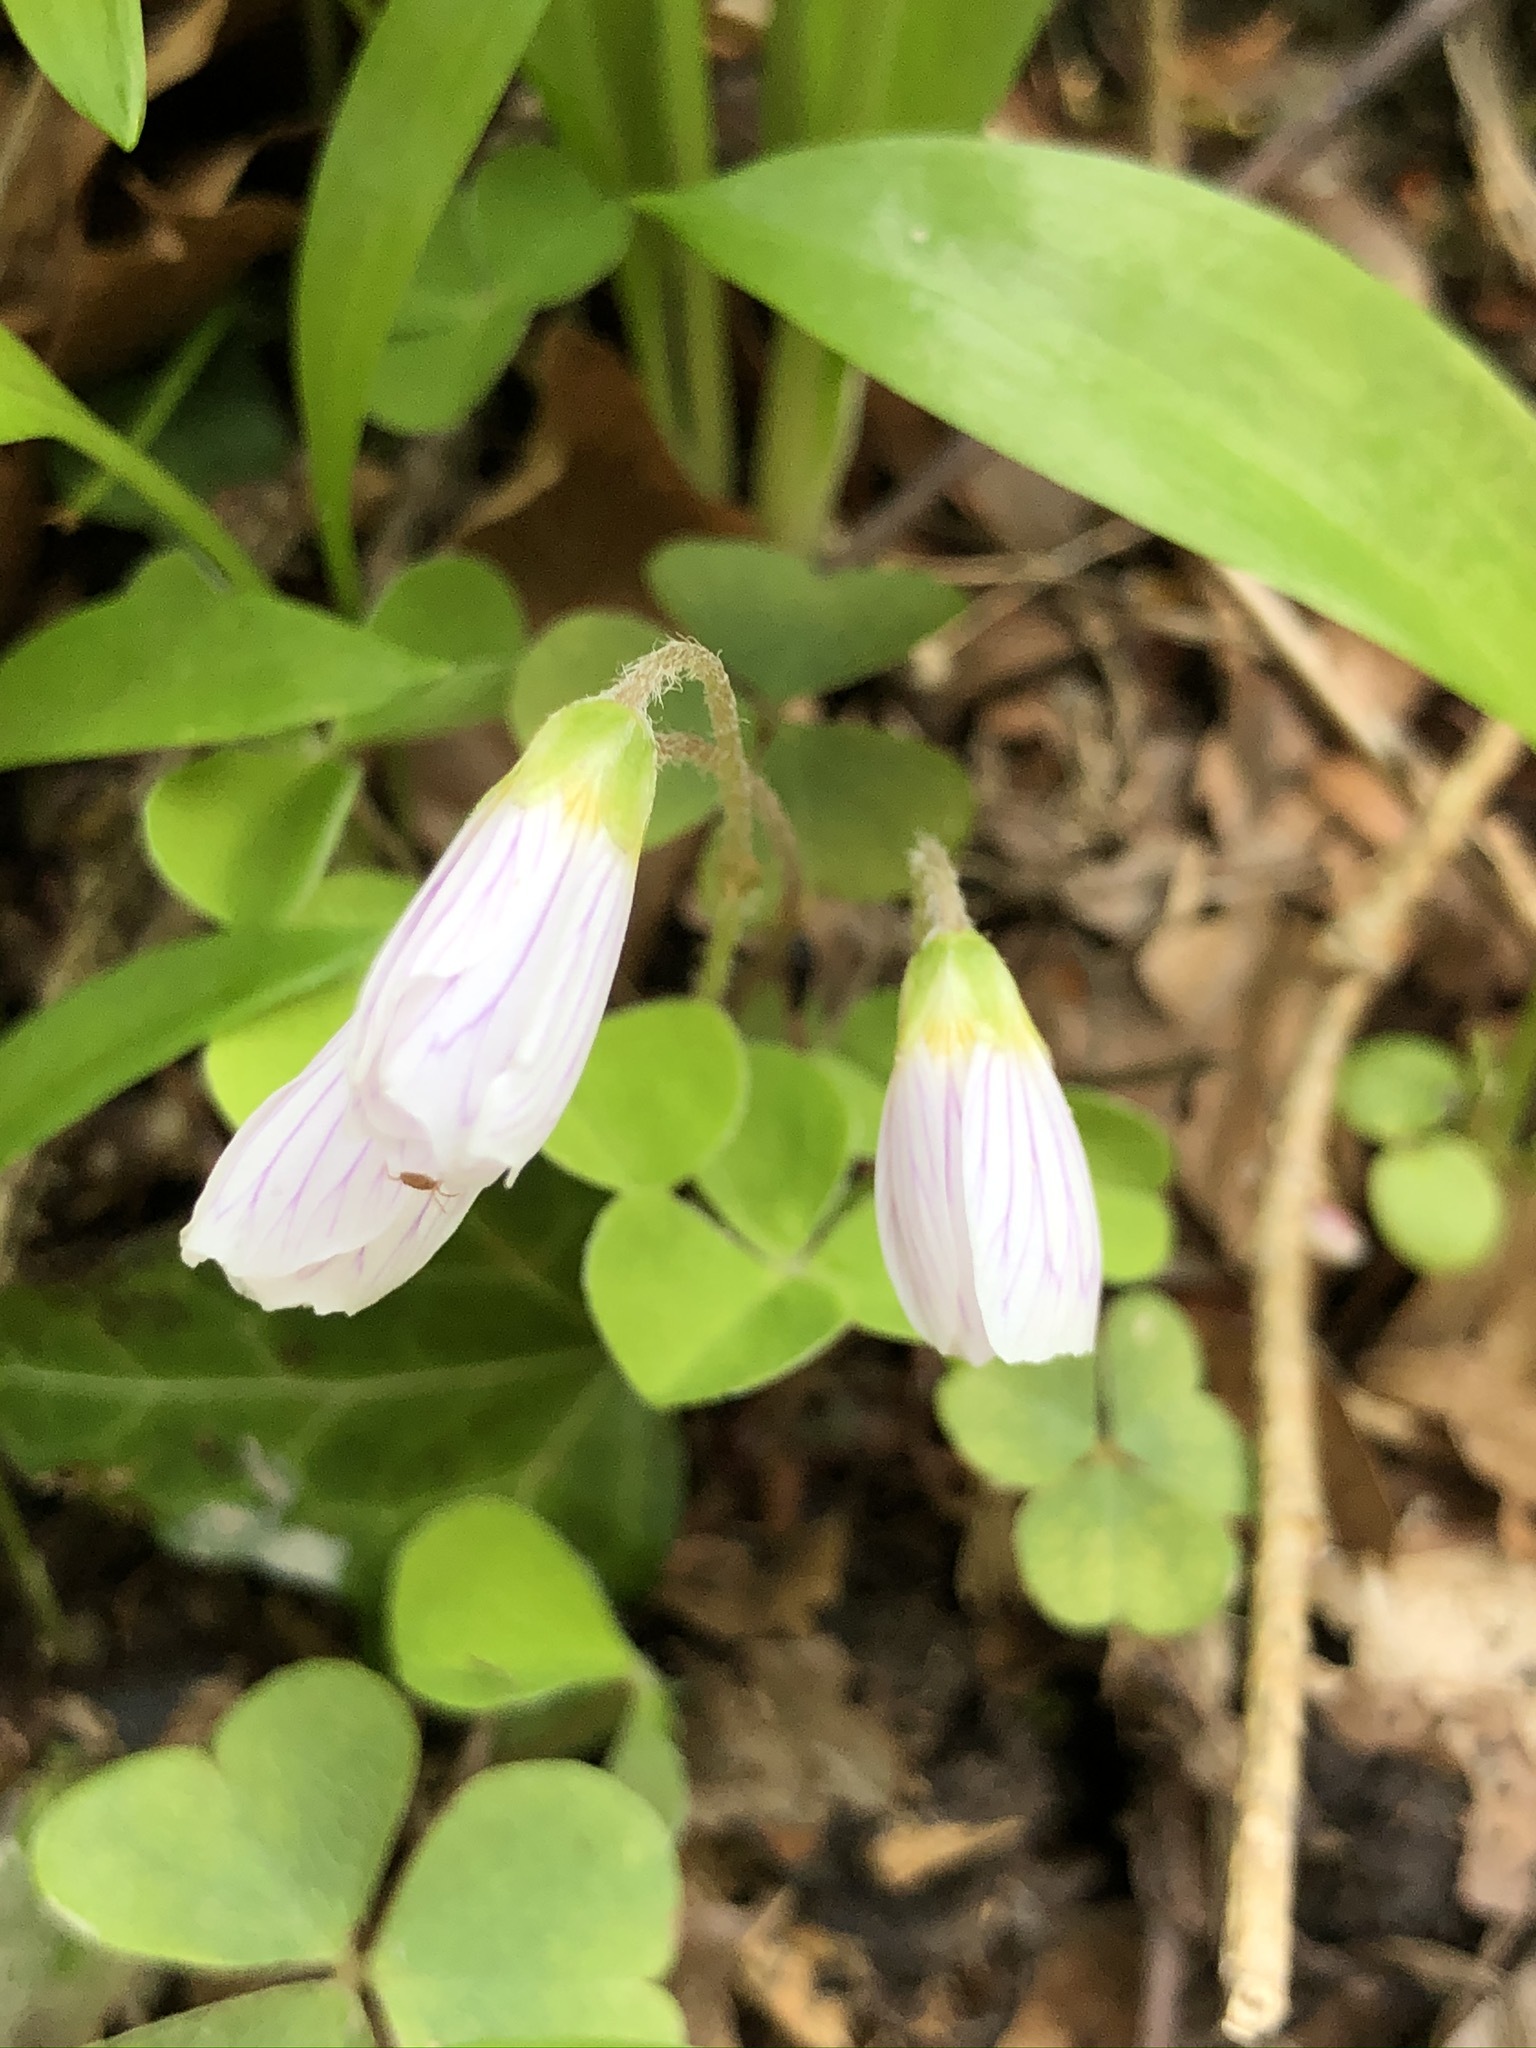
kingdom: Plantae
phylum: Tracheophyta
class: Magnoliopsida
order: Oxalidales
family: Oxalidaceae
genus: Oxalis
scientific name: Oxalis acetosella
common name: Wood-sorrel
